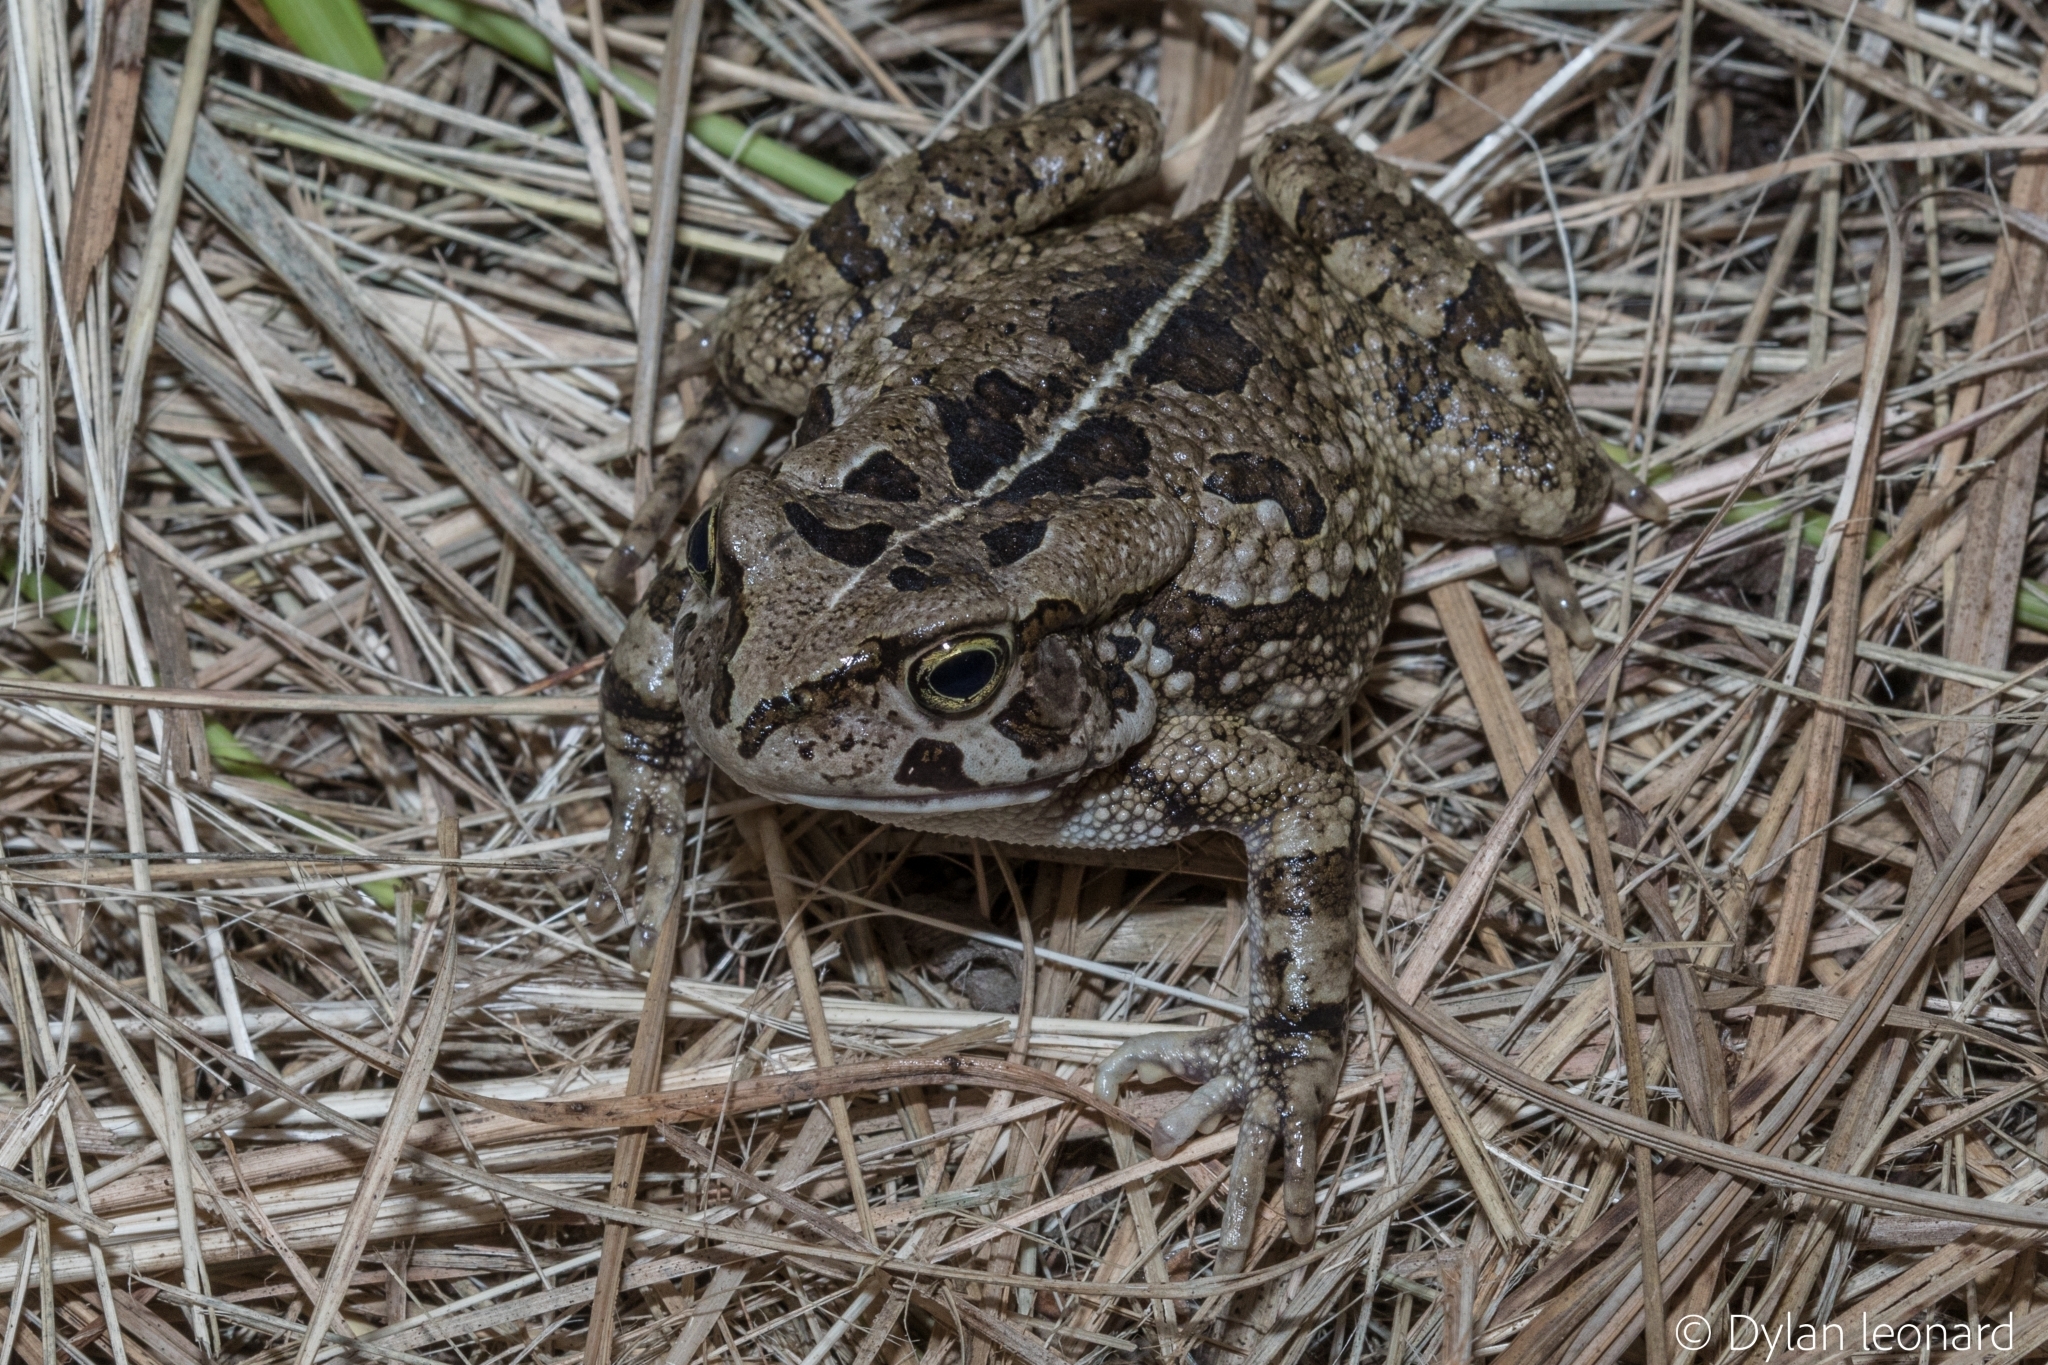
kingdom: Animalia
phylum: Chordata
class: Amphibia
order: Anura
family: Bufonidae
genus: Sclerophrys
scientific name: Sclerophrys capensis
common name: Ranger’s toad
